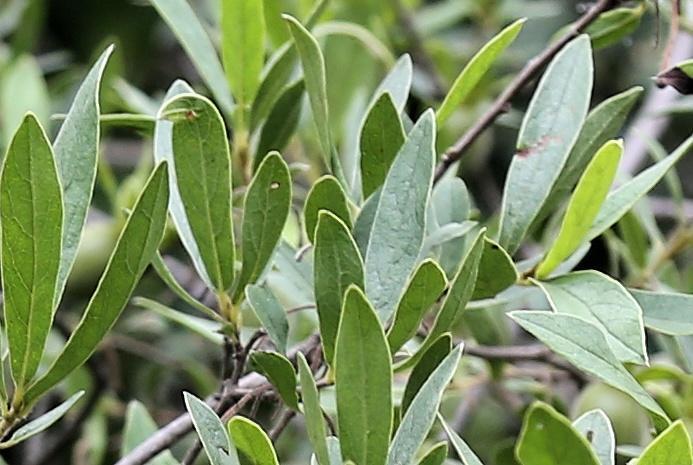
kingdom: Plantae
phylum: Tracheophyta
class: Magnoliopsida
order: Ericales
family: Ebenaceae
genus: Diospyros
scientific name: Diospyros lycioides
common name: Red star apple
